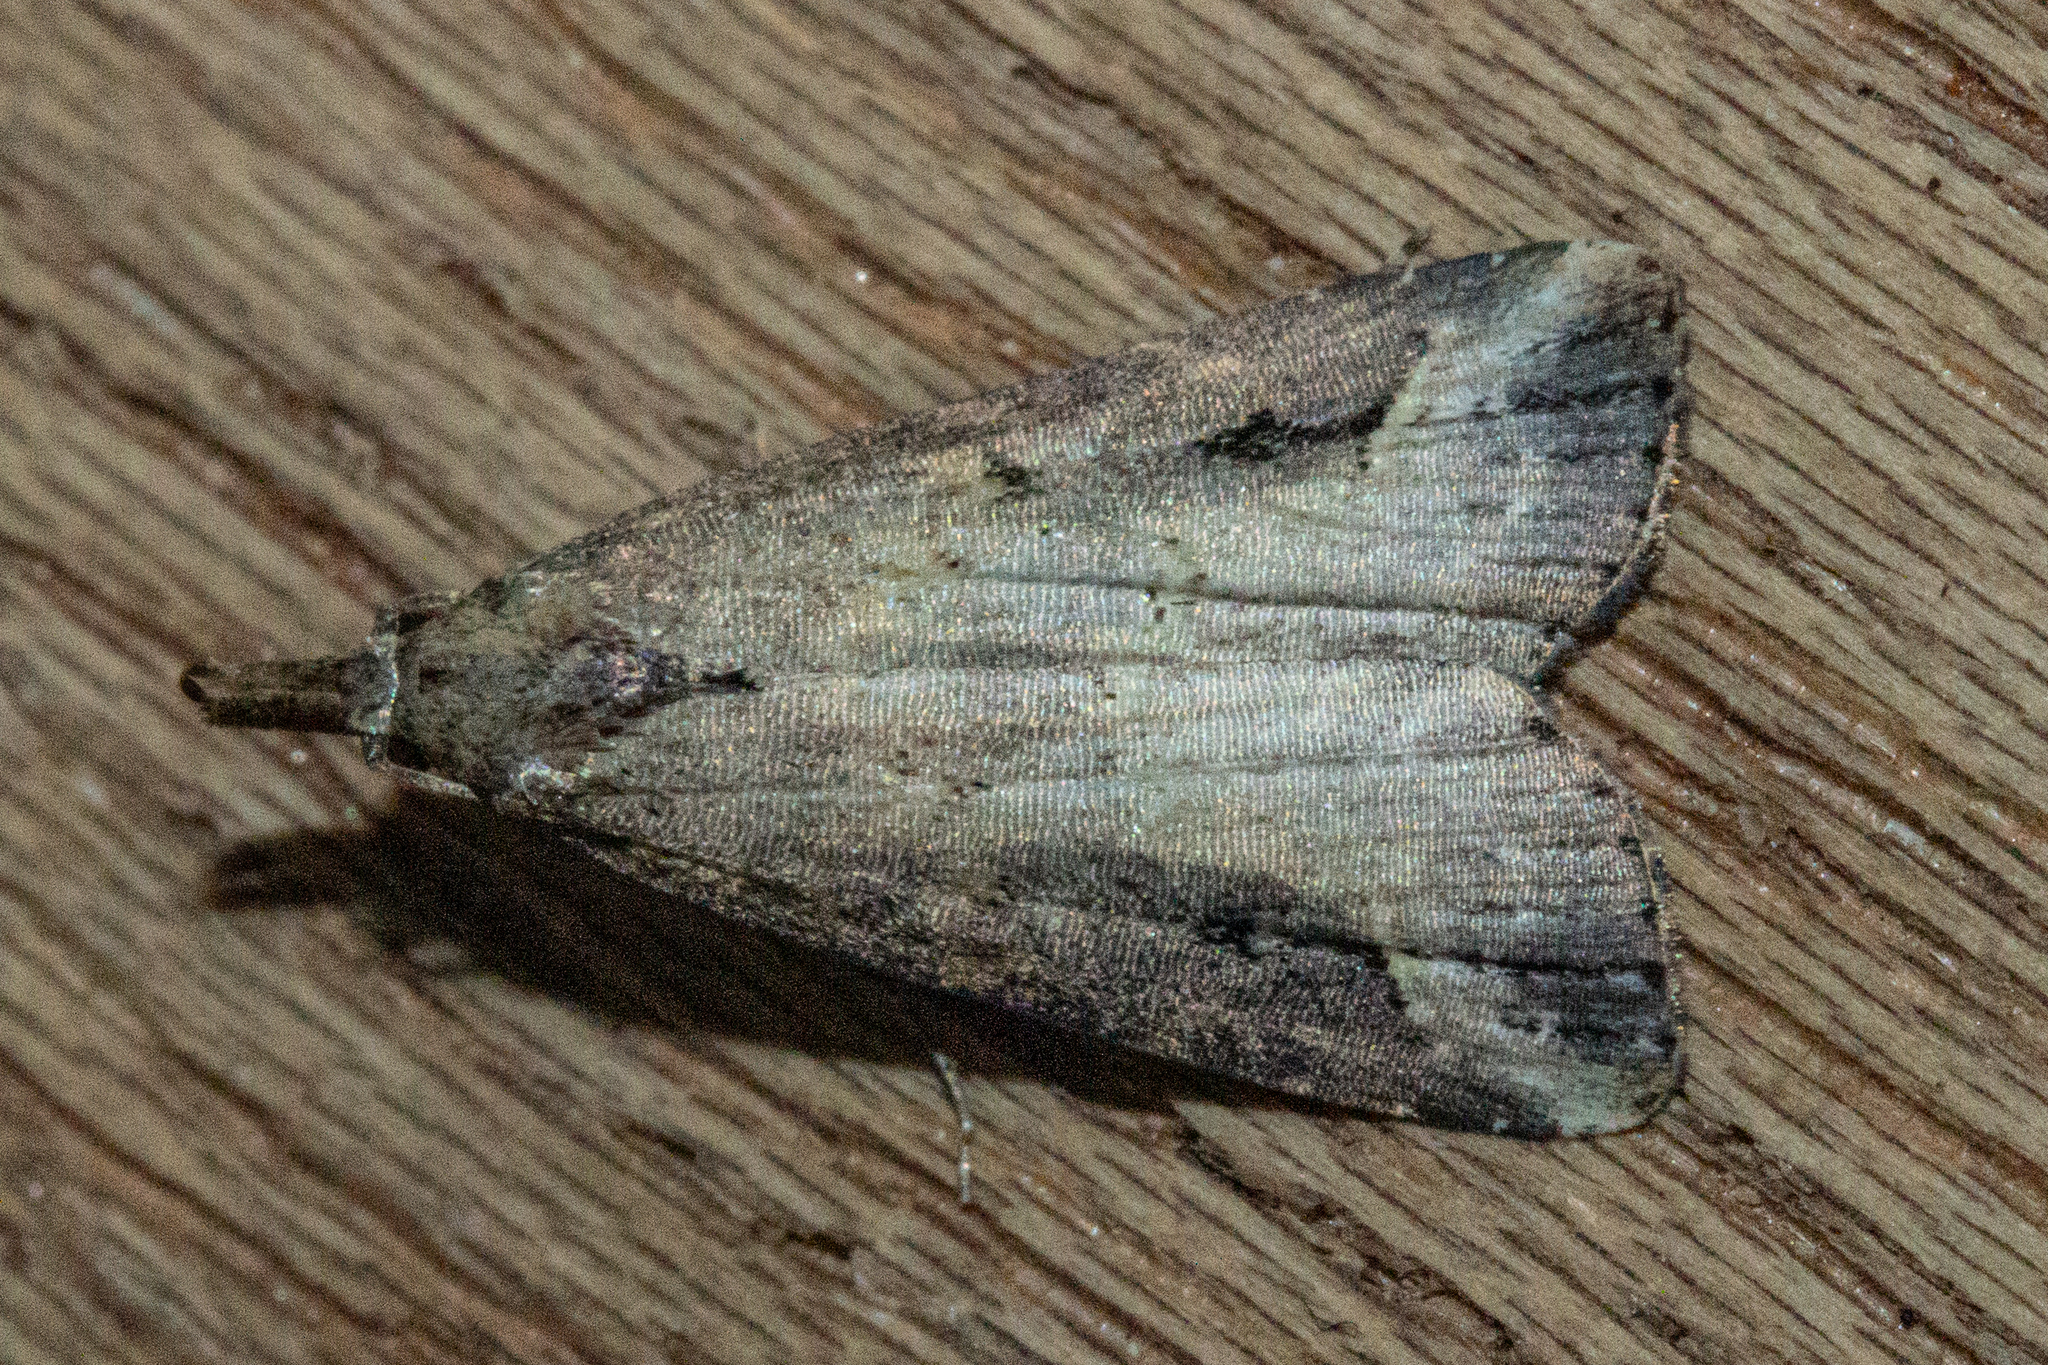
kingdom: Animalia
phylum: Arthropoda
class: Insecta
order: Lepidoptera
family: Erebidae
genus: Schrankia
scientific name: Schrankia costaestrigalis
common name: Pinion-streaked snout
